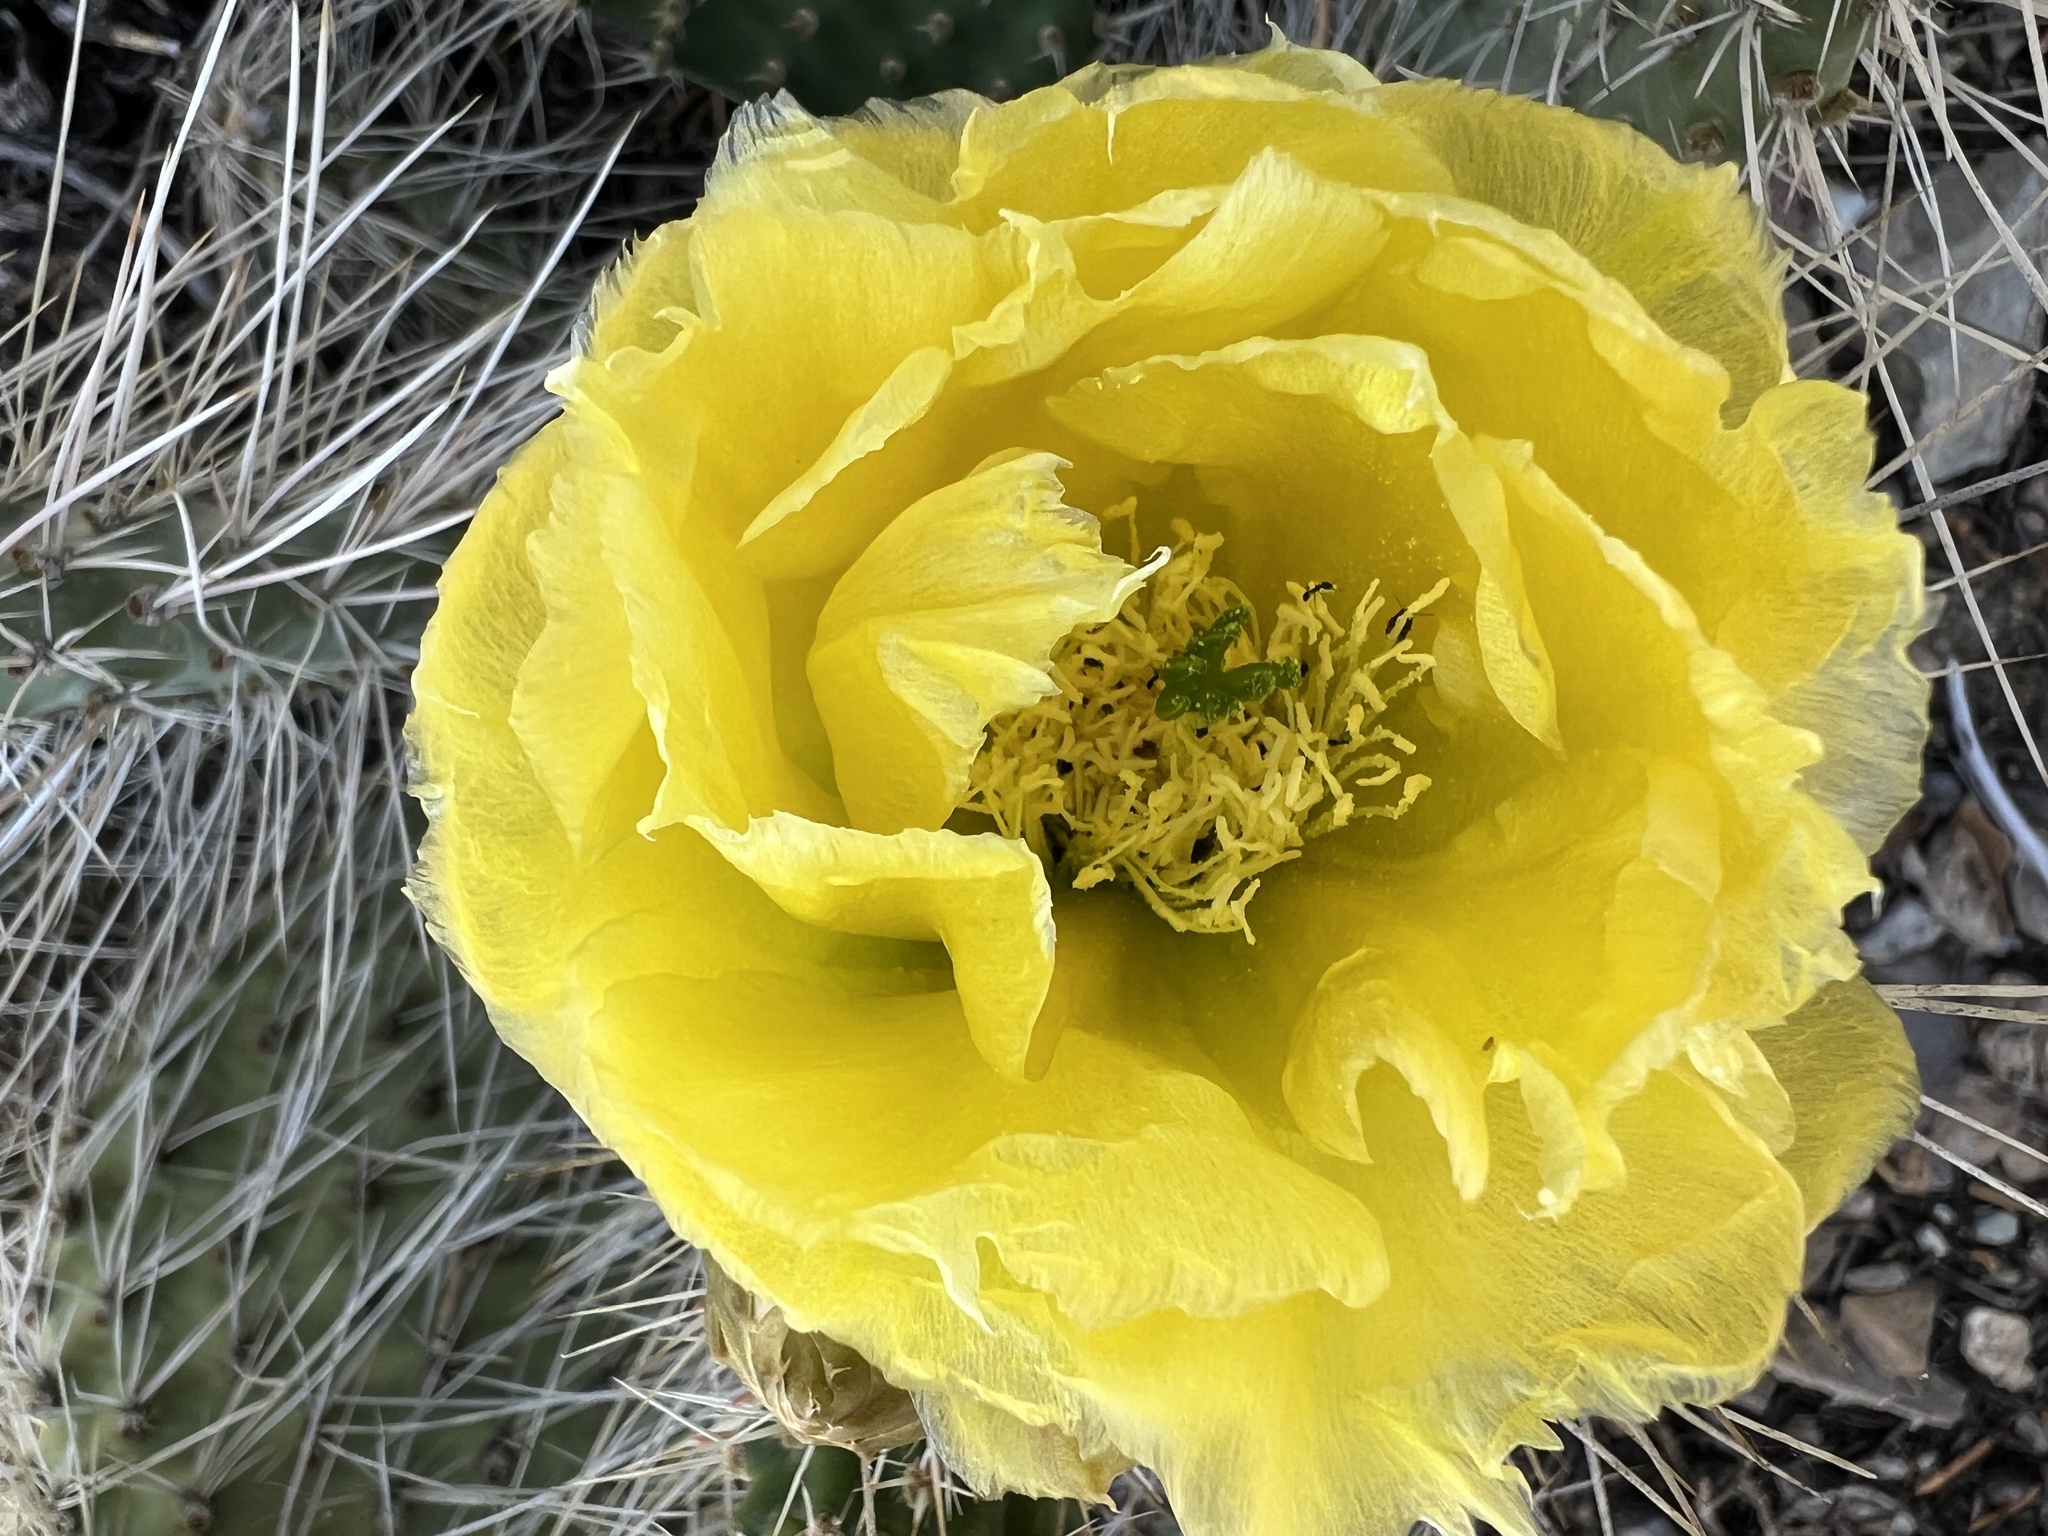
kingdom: Plantae
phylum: Tracheophyta
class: Magnoliopsida
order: Caryophyllales
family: Cactaceae
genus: Opuntia
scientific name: Opuntia polyacantha
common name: Plains prickly-pear
